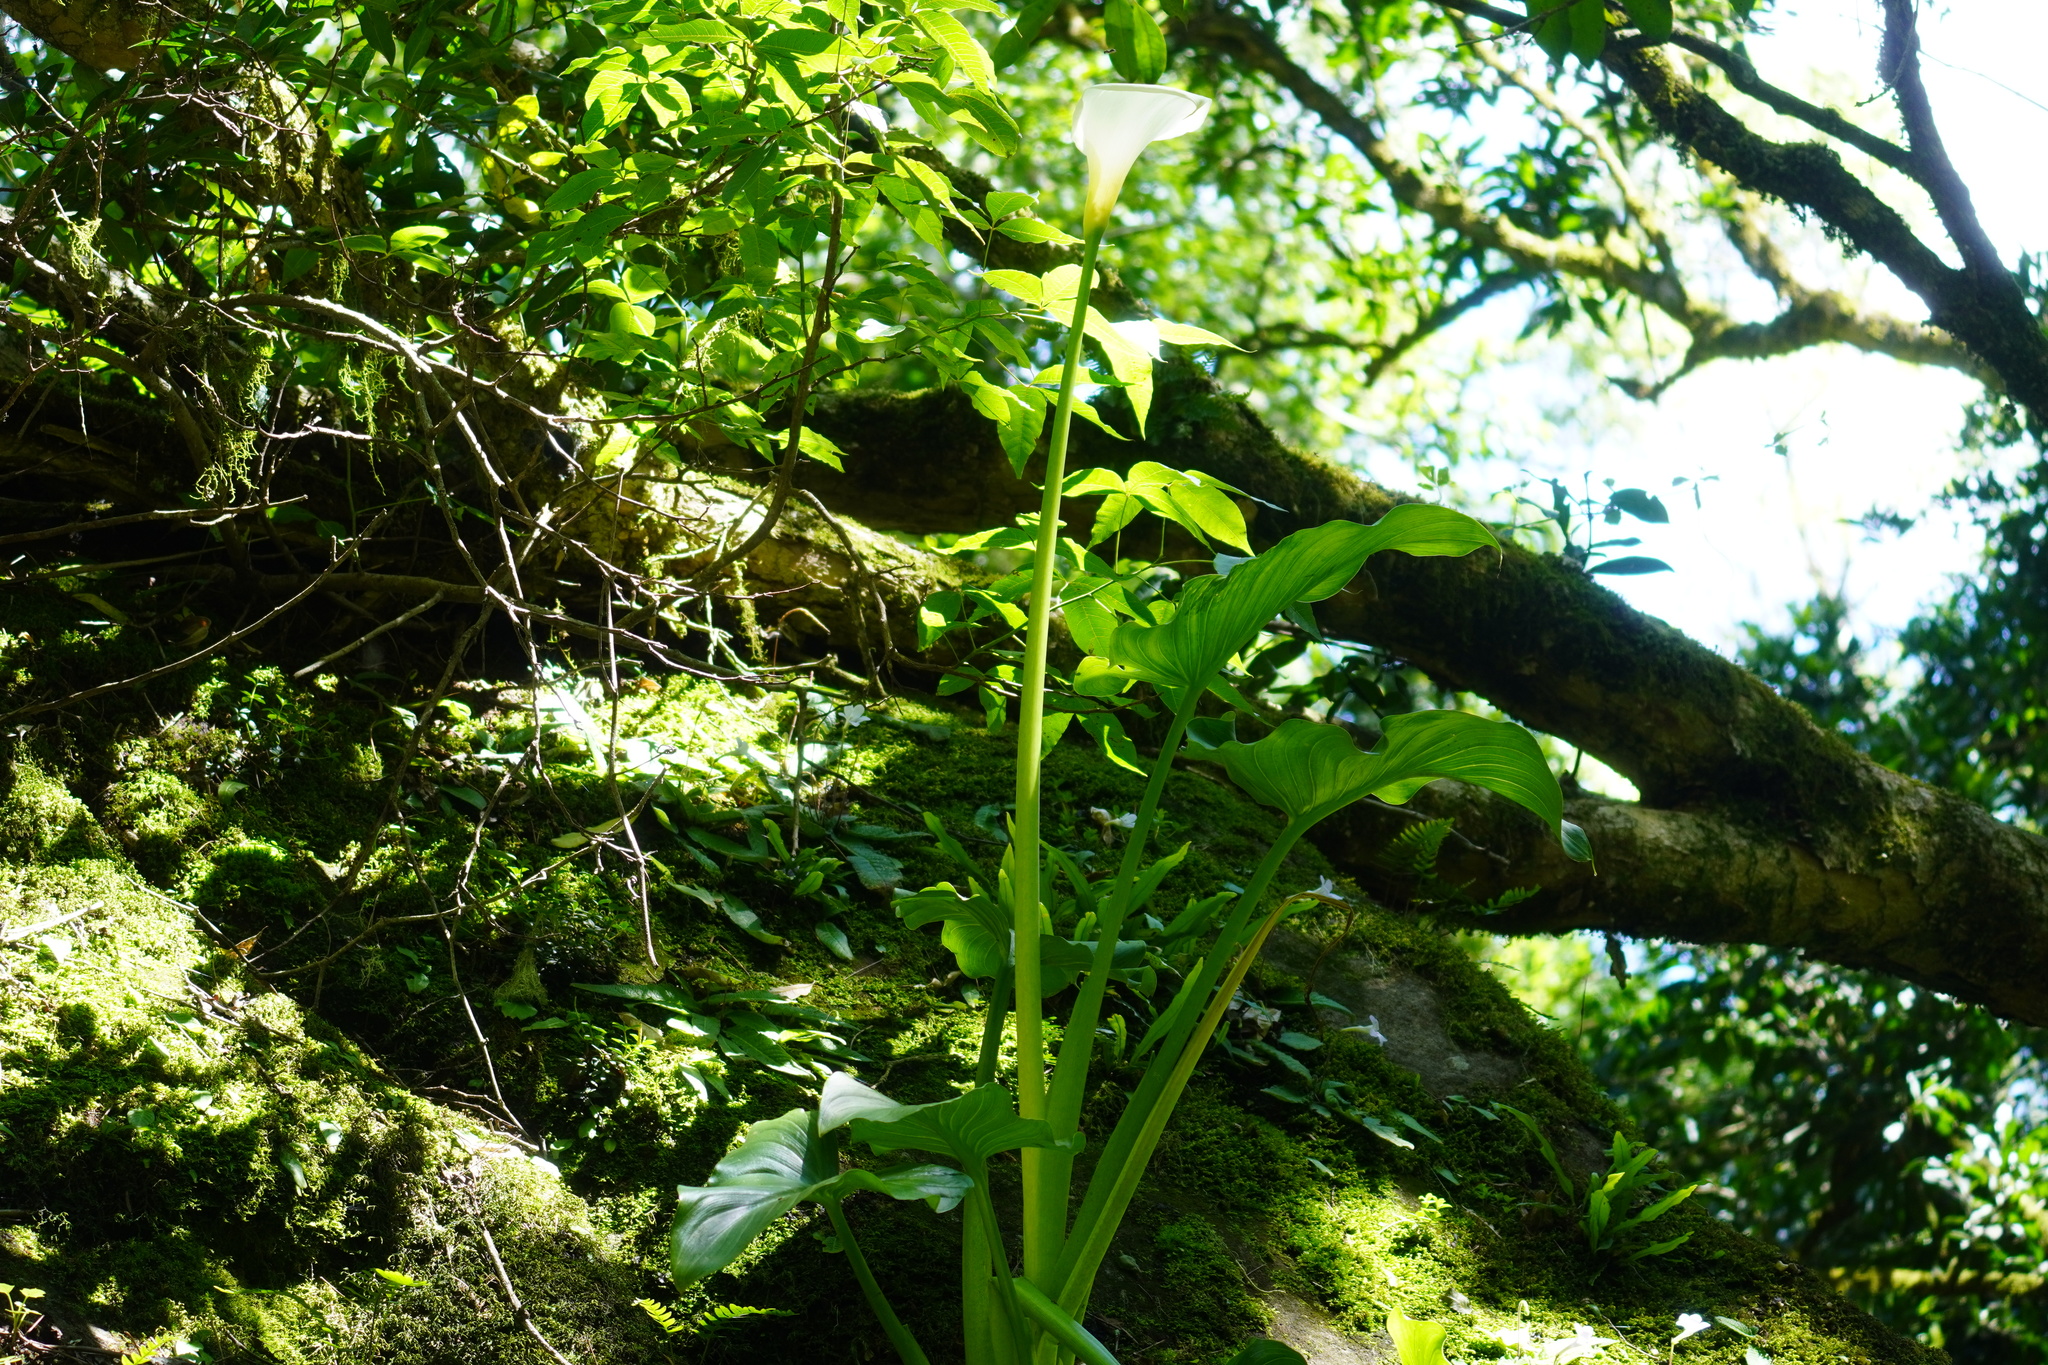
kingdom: Plantae
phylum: Tracheophyta
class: Liliopsida
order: Alismatales
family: Araceae
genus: Zantedeschia
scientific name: Zantedeschia aethiopica
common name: Altar-lily
